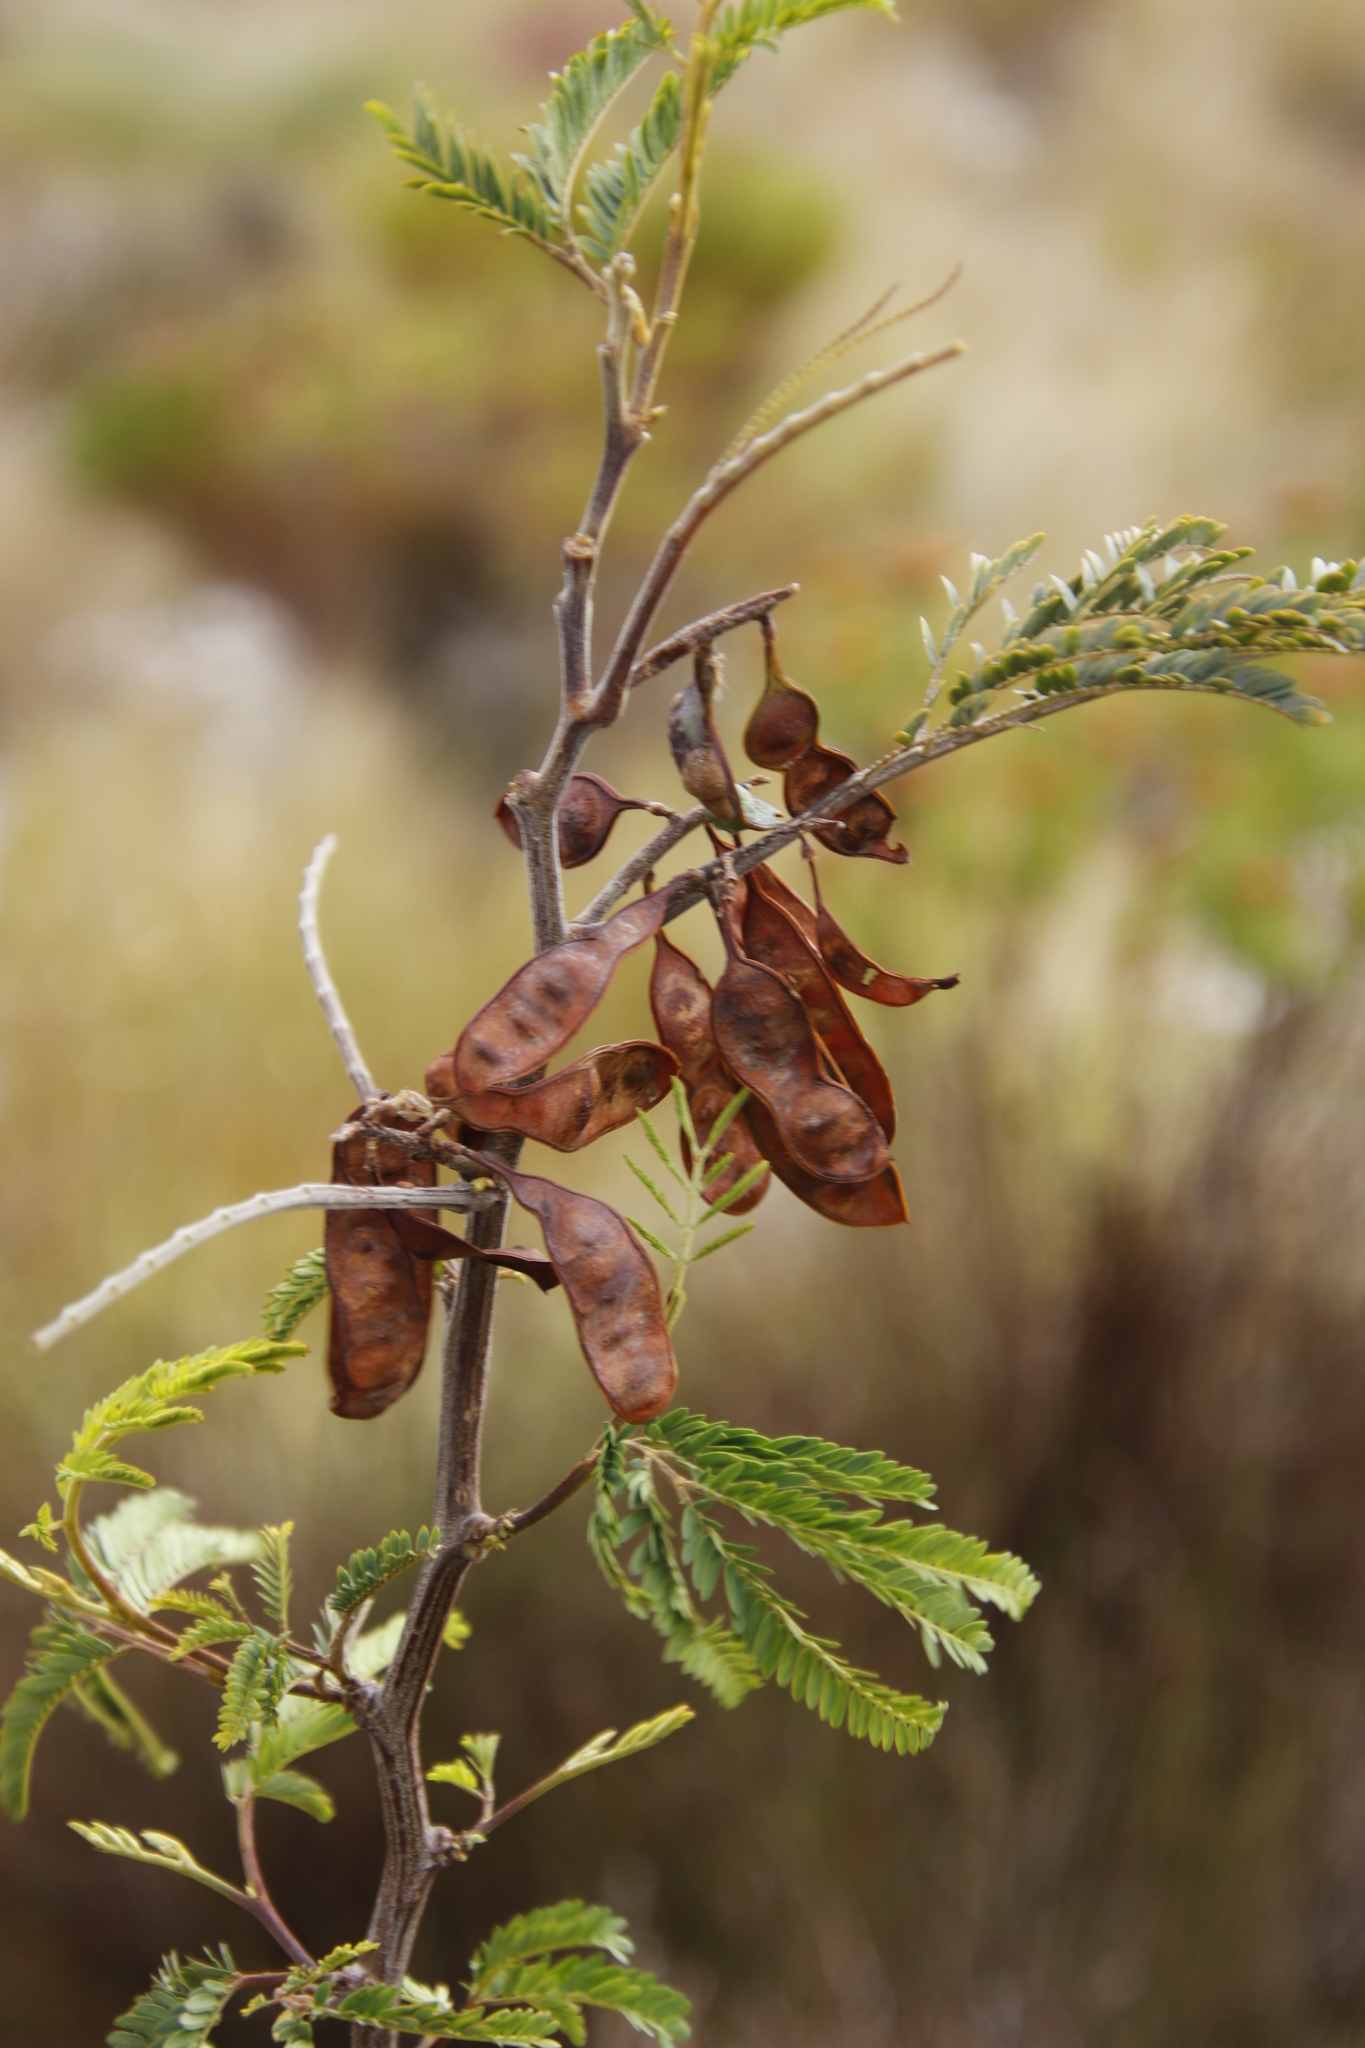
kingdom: Plantae
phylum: Tracheophyta
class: Magnoliopsida
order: Fabales
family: Fabaceae
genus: Paraserianthes
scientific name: Paraserianthes lophantha
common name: Plume albizia
